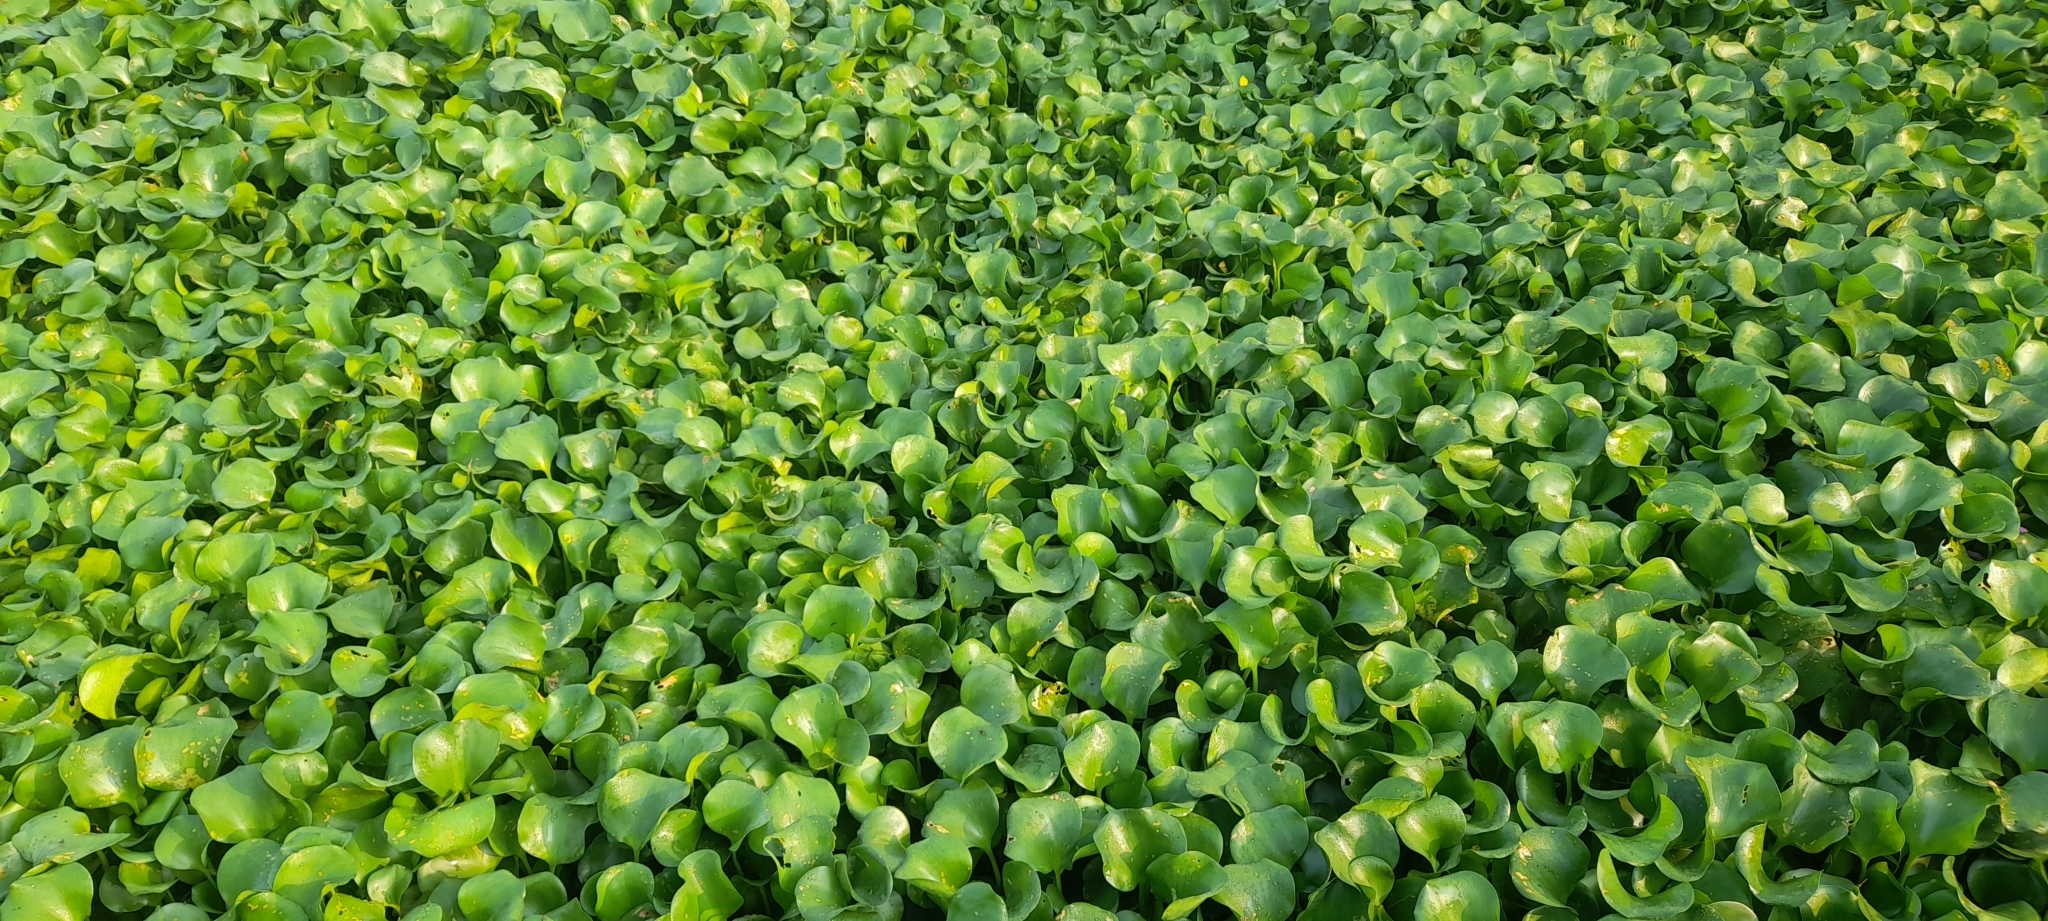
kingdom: Plantae
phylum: Tracheophyta
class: Liliopsida
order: Commelinales
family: Pontederiaceae
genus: Pontederia
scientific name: Pontederia crassipes
